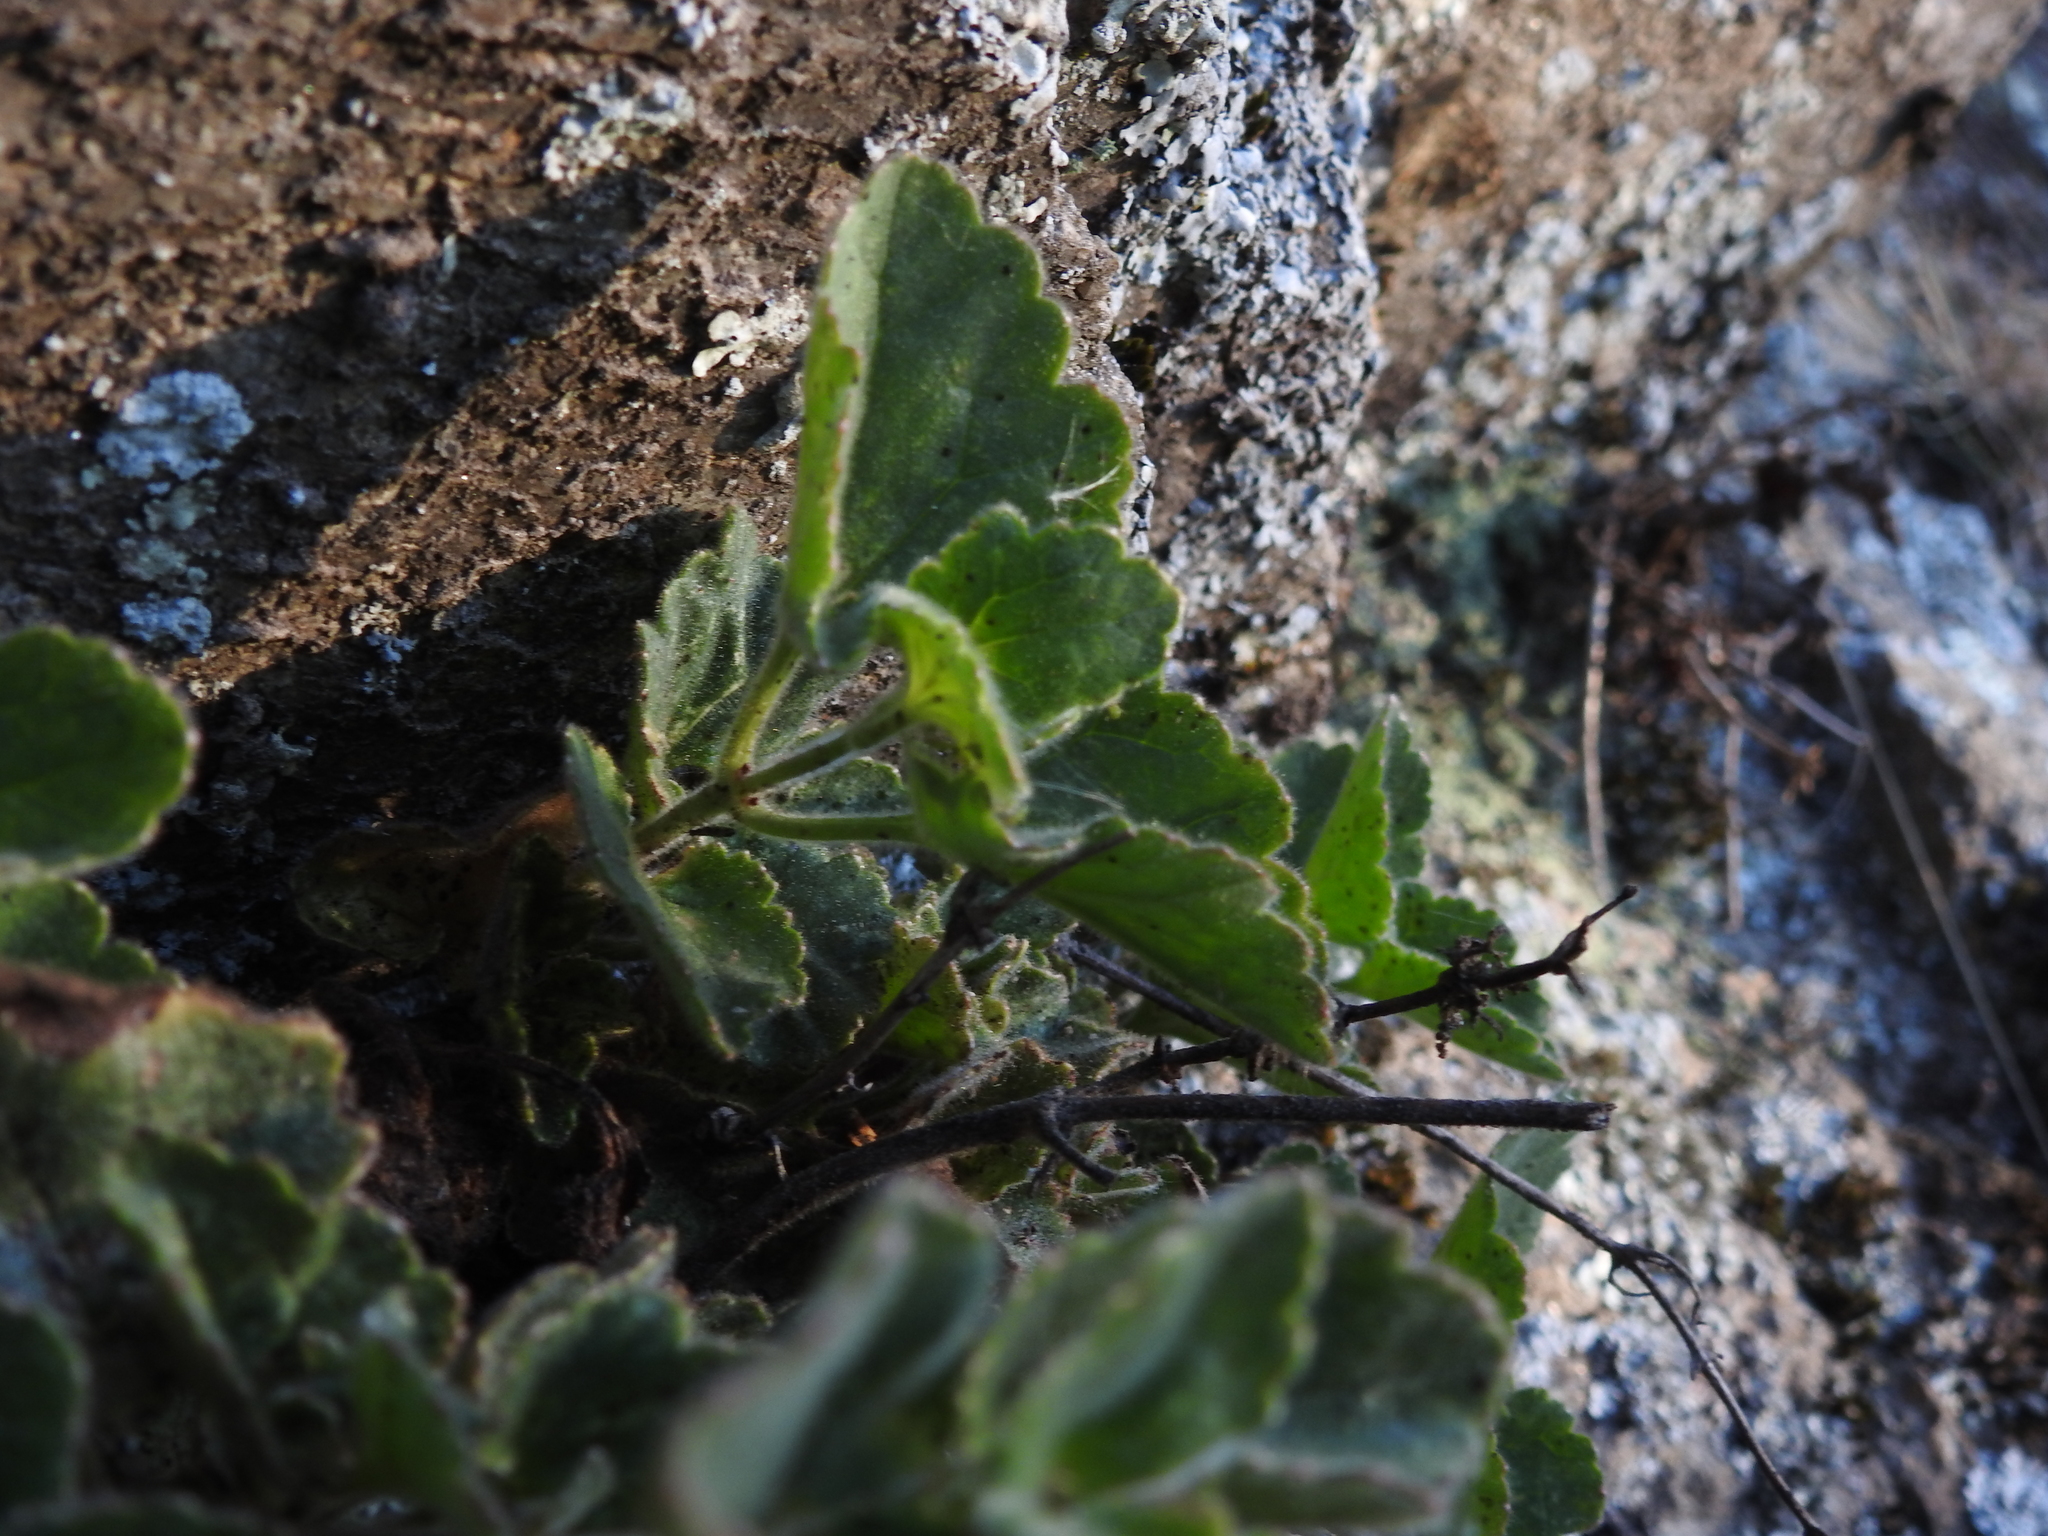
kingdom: Plantae
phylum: Tracheophyta
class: Magnoliopsida
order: Lamiales
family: Plantaginaceae
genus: Asarina
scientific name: Asarina procumbens
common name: Trailing snapdragon
